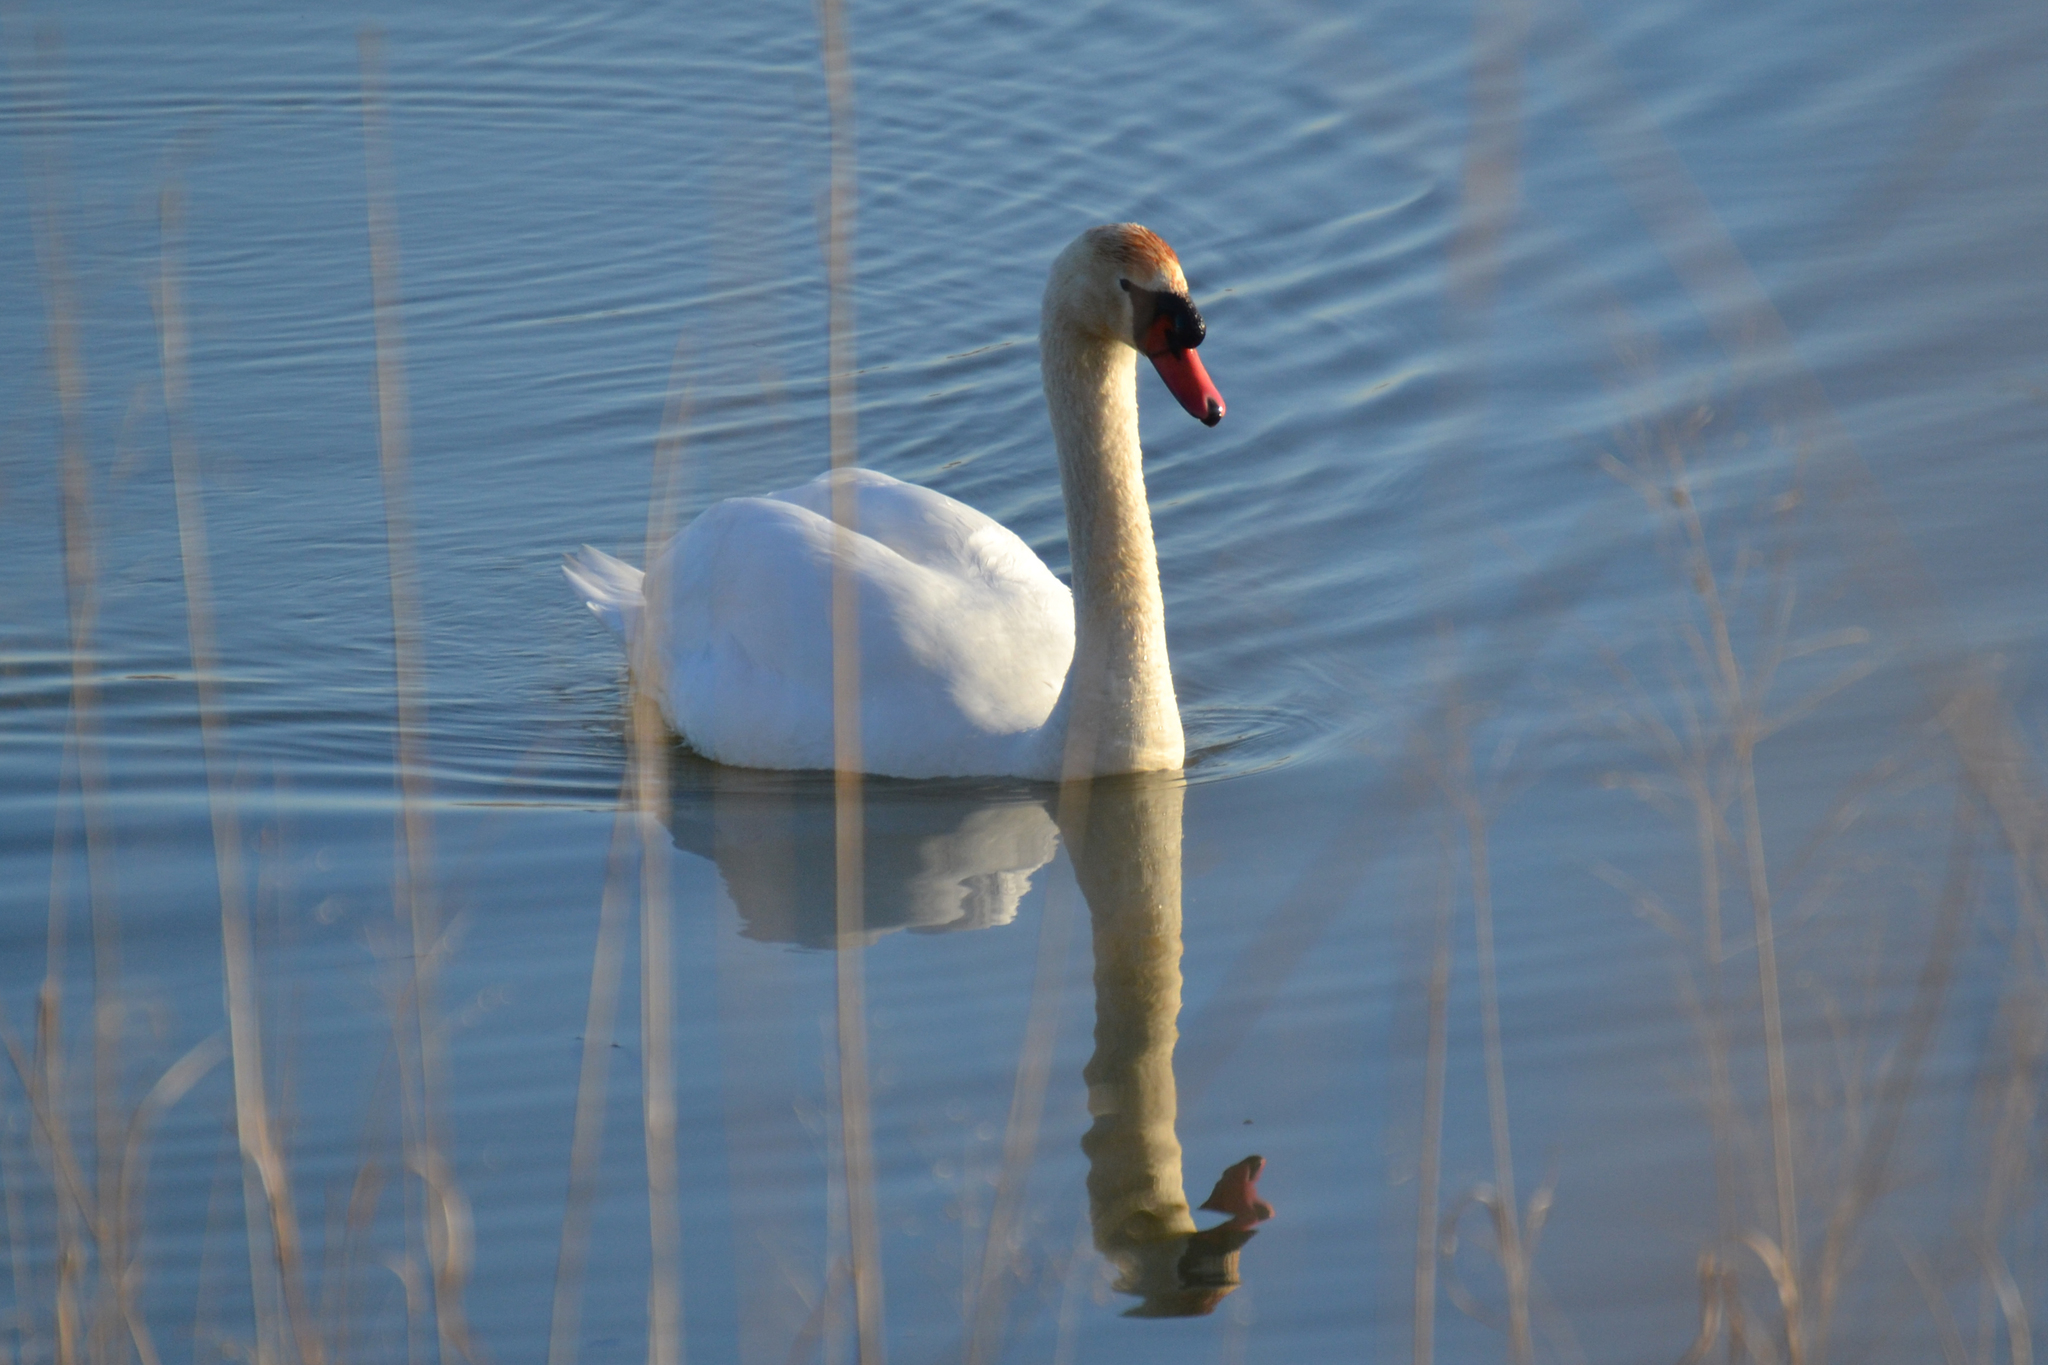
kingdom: Animalia
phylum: Chordata
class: Aves
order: Anseriformes
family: Anatidae
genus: Cygnus
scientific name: Cygnus olor
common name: Mute swan
